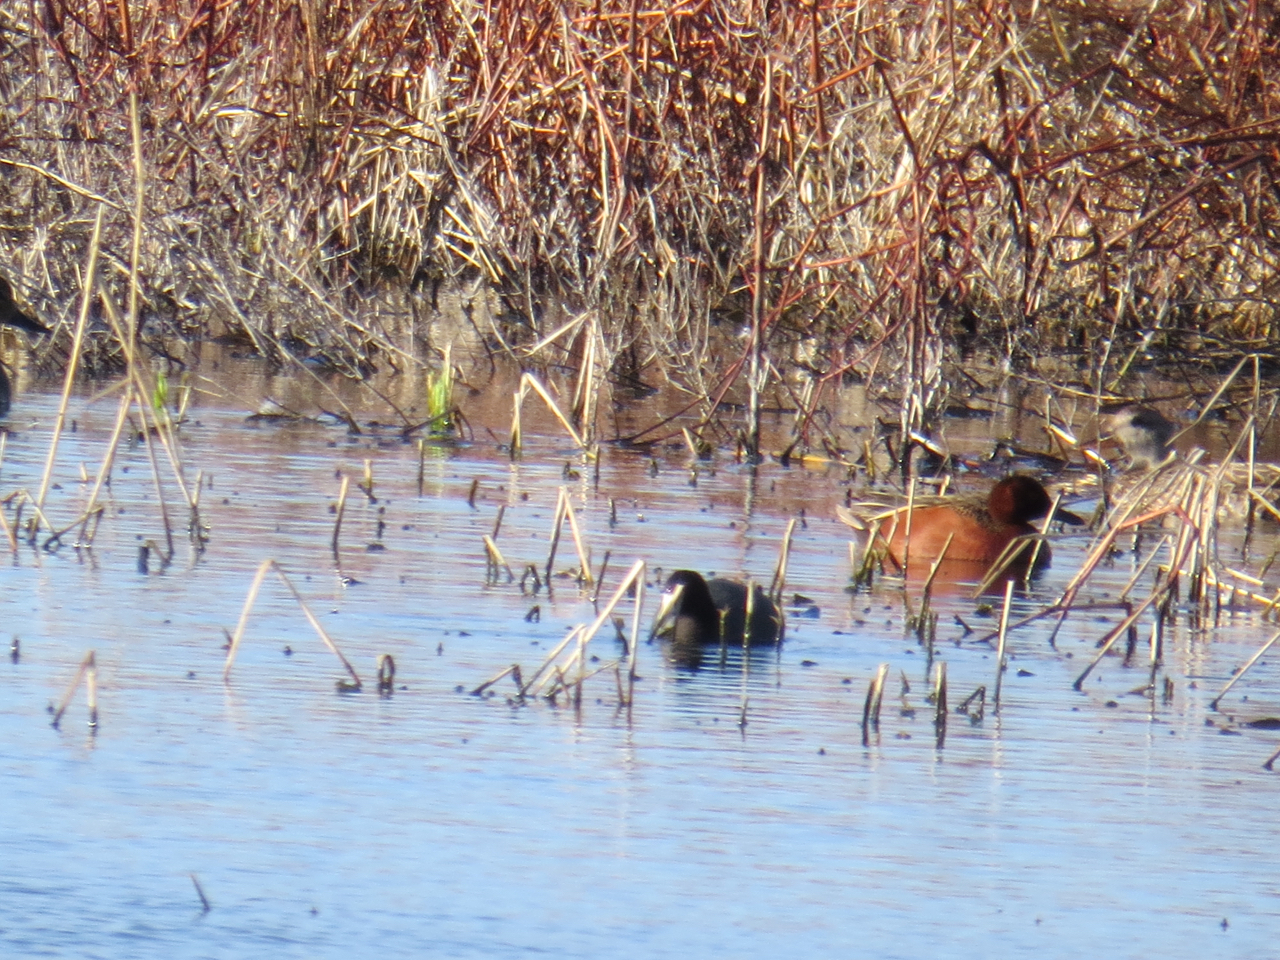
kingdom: Animalia
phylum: Chordata
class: Aves
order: Anseriformes
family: Anatidae
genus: Spatula
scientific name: Spatula cyanoptera
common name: Cinnamon teal
